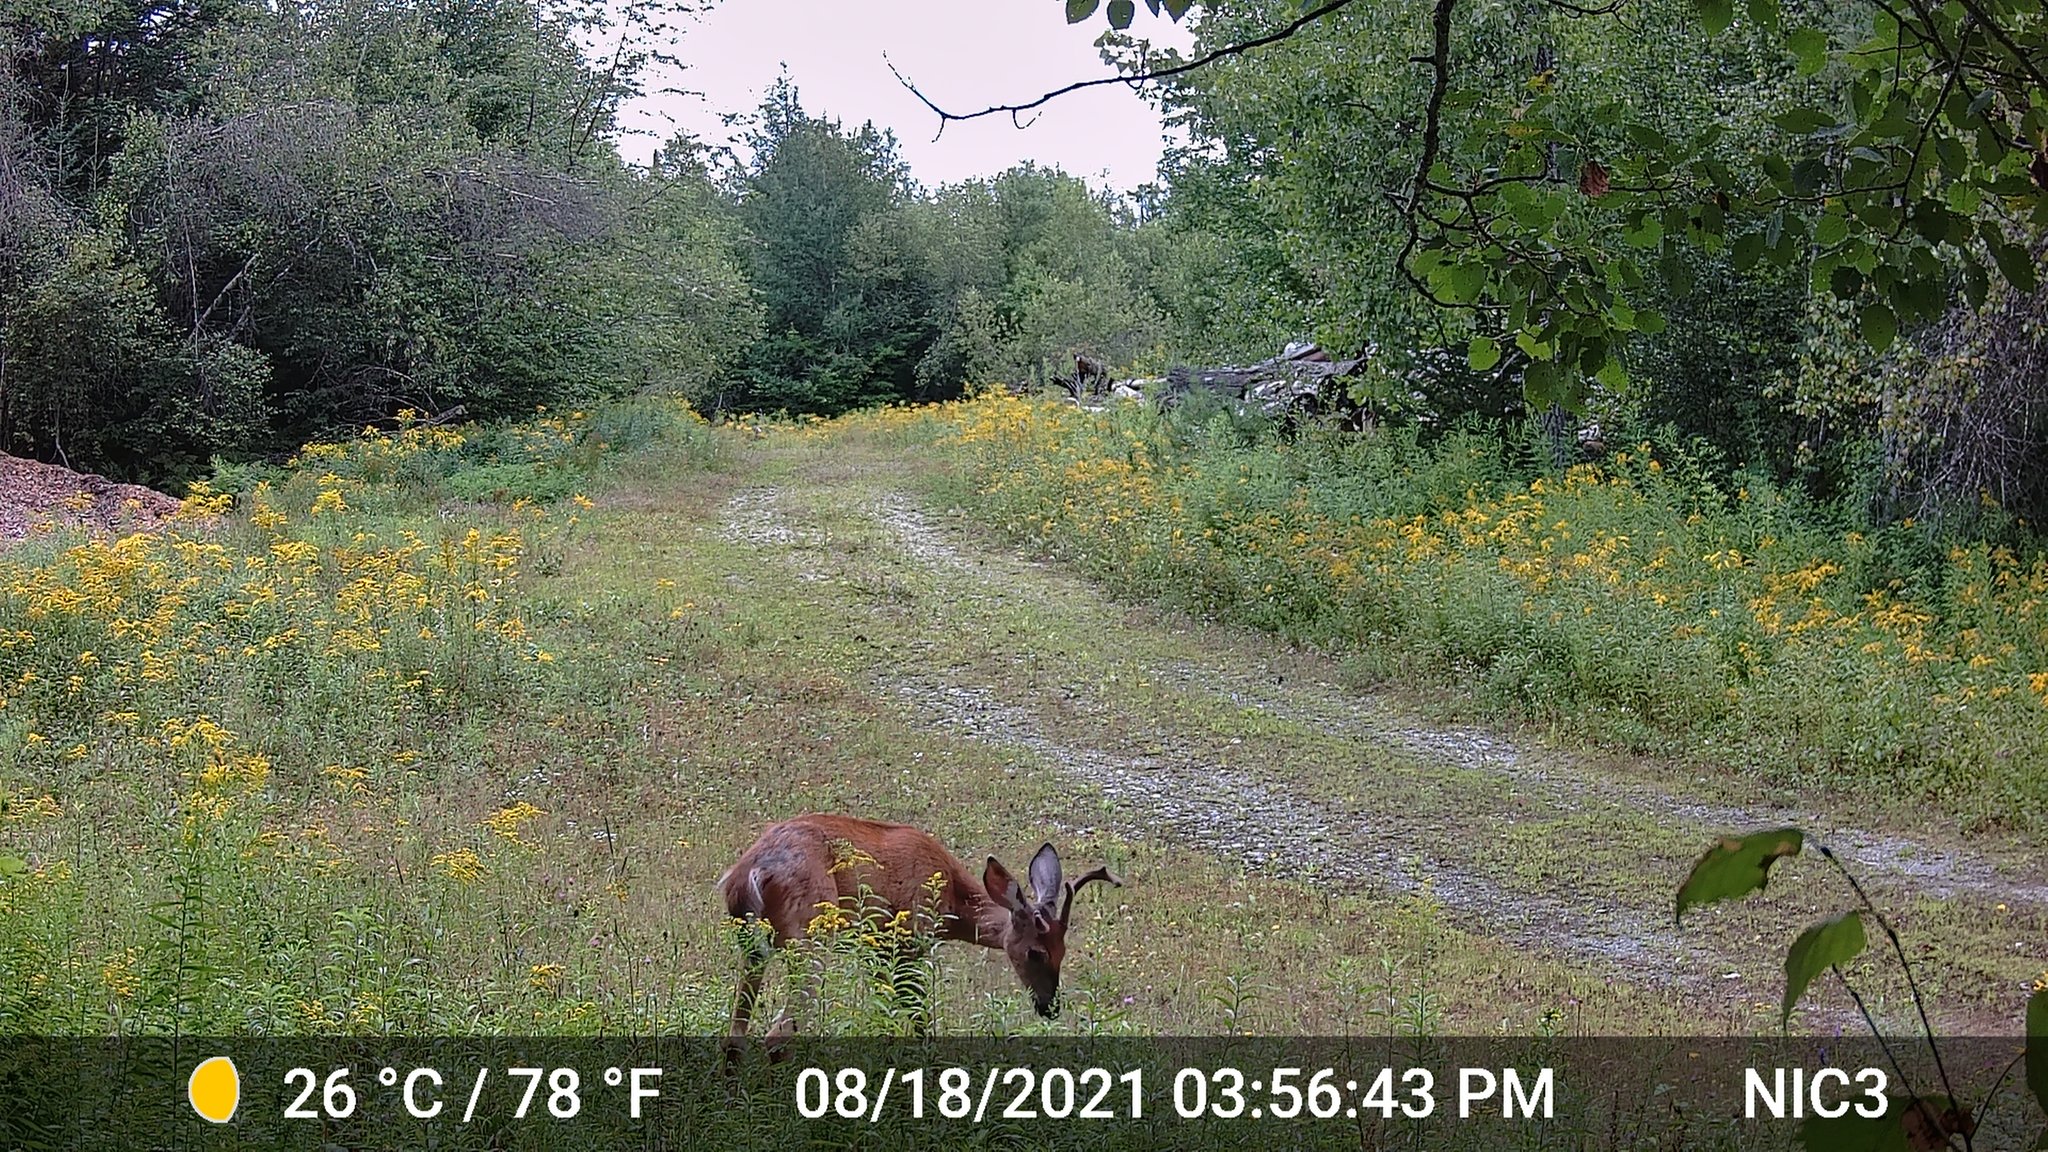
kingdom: Animalia
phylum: Chordata
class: Mammalia
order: Artiodactyla
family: Cervidae
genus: Odocoileus
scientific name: Odocoileus virginianus
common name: White-tailed deer
